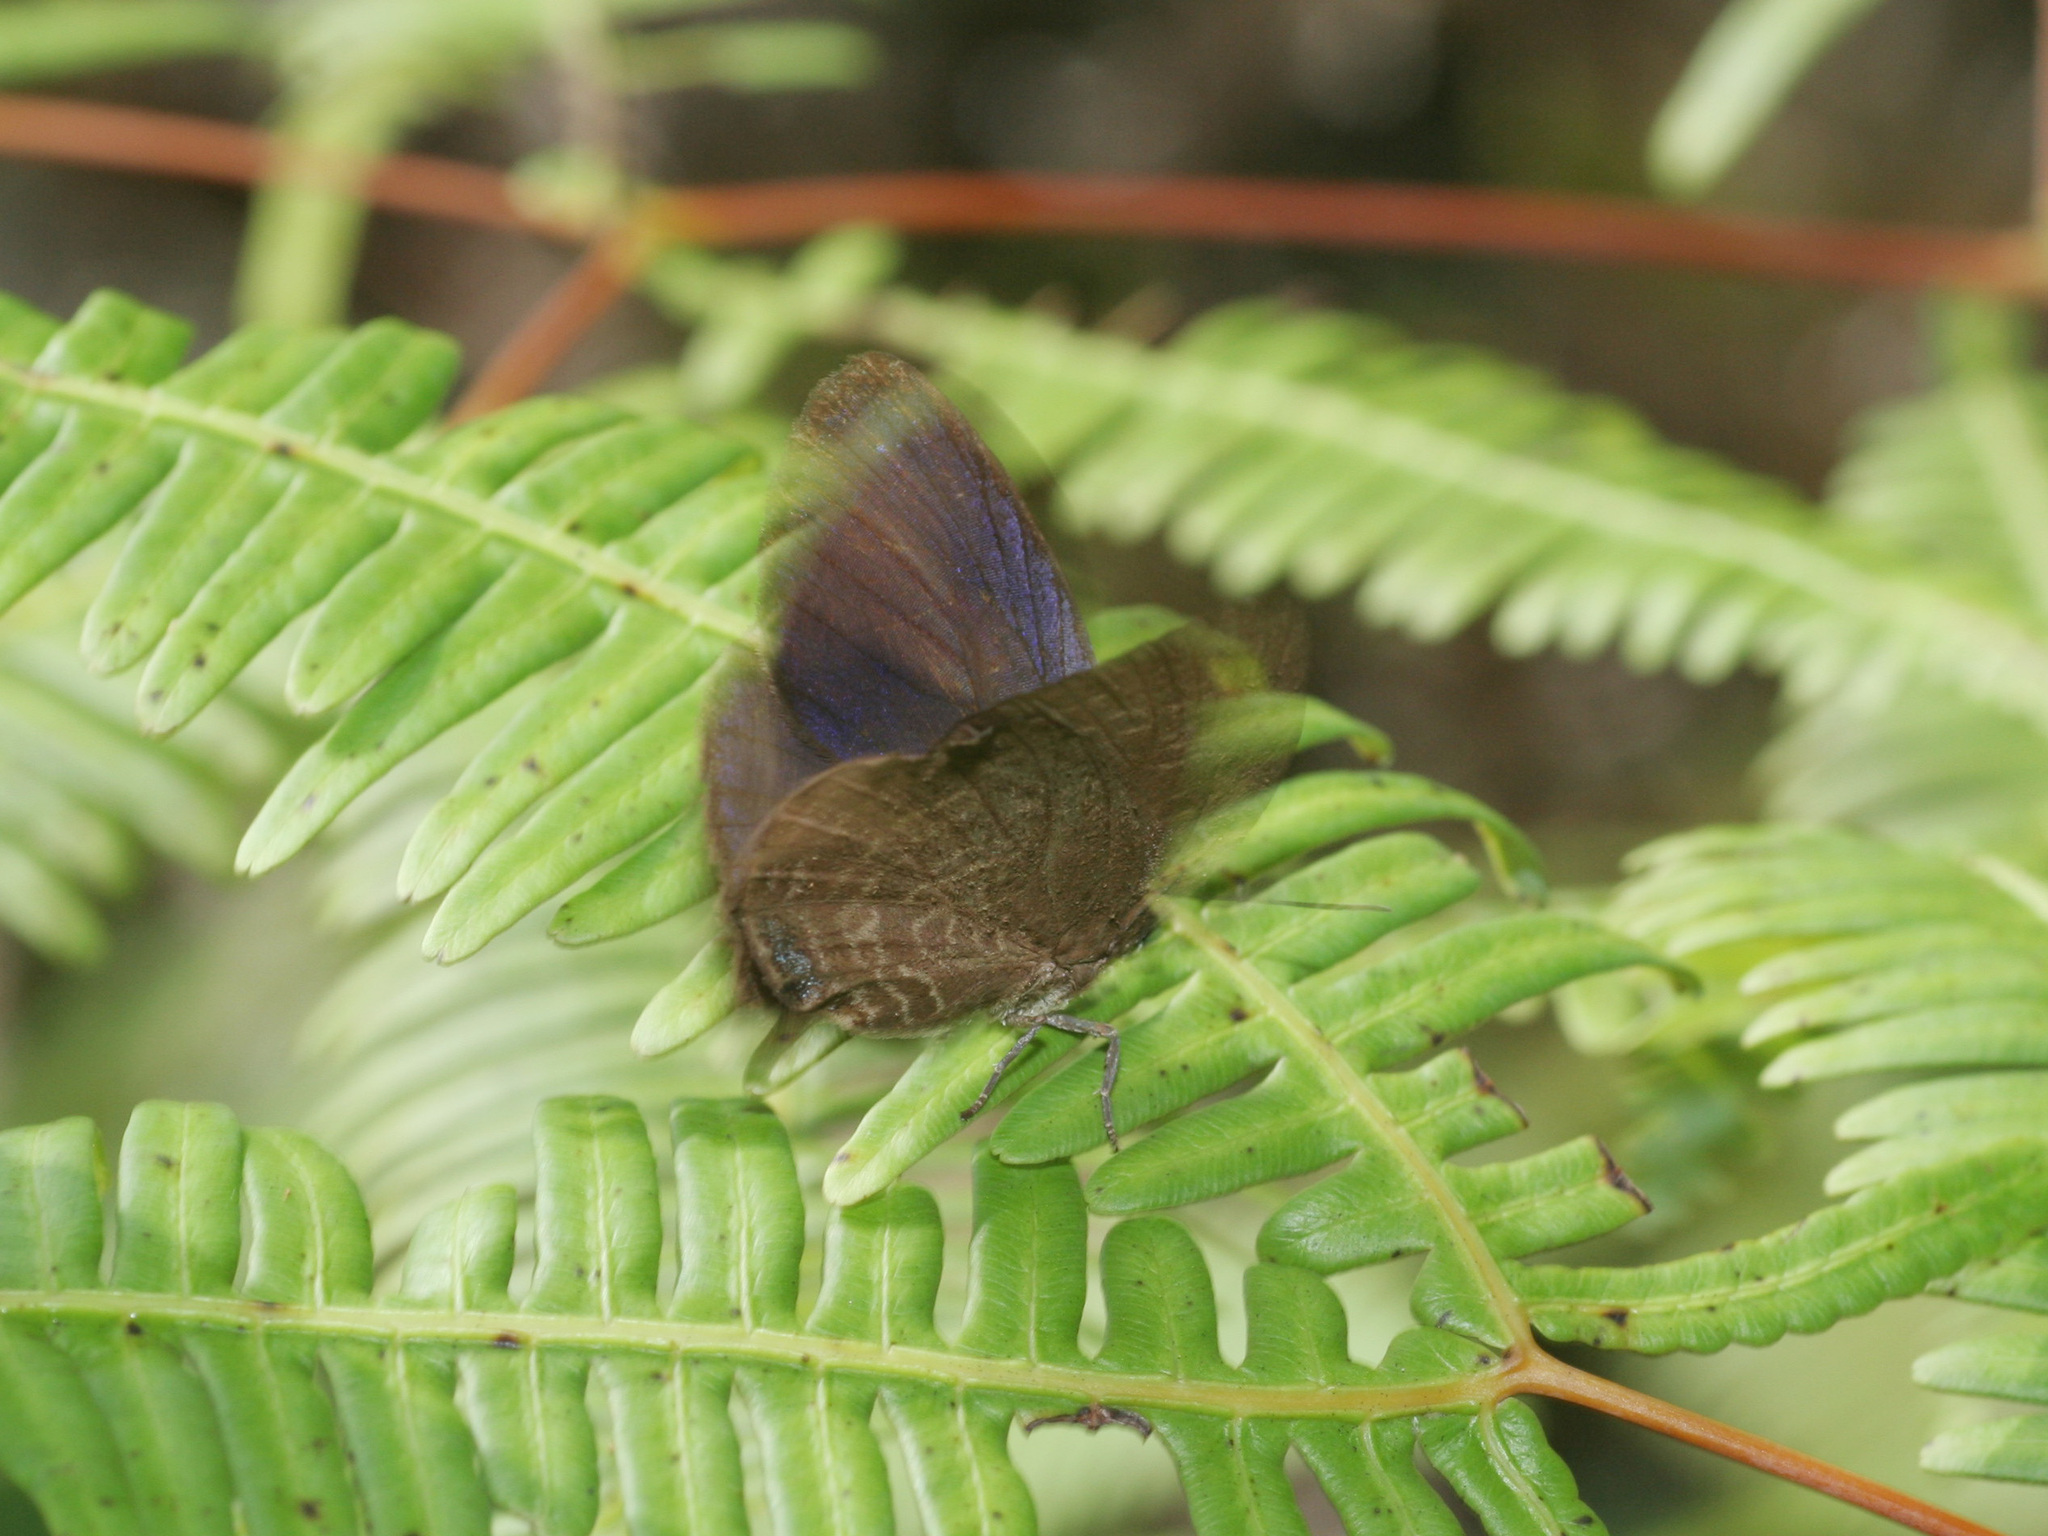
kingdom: Animalia
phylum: Arthropoda
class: Insecta
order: Lepidoptera
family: Lycaenidae
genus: Arhopala
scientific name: Arhopala amphimuta
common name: Broad yellow oakblue
